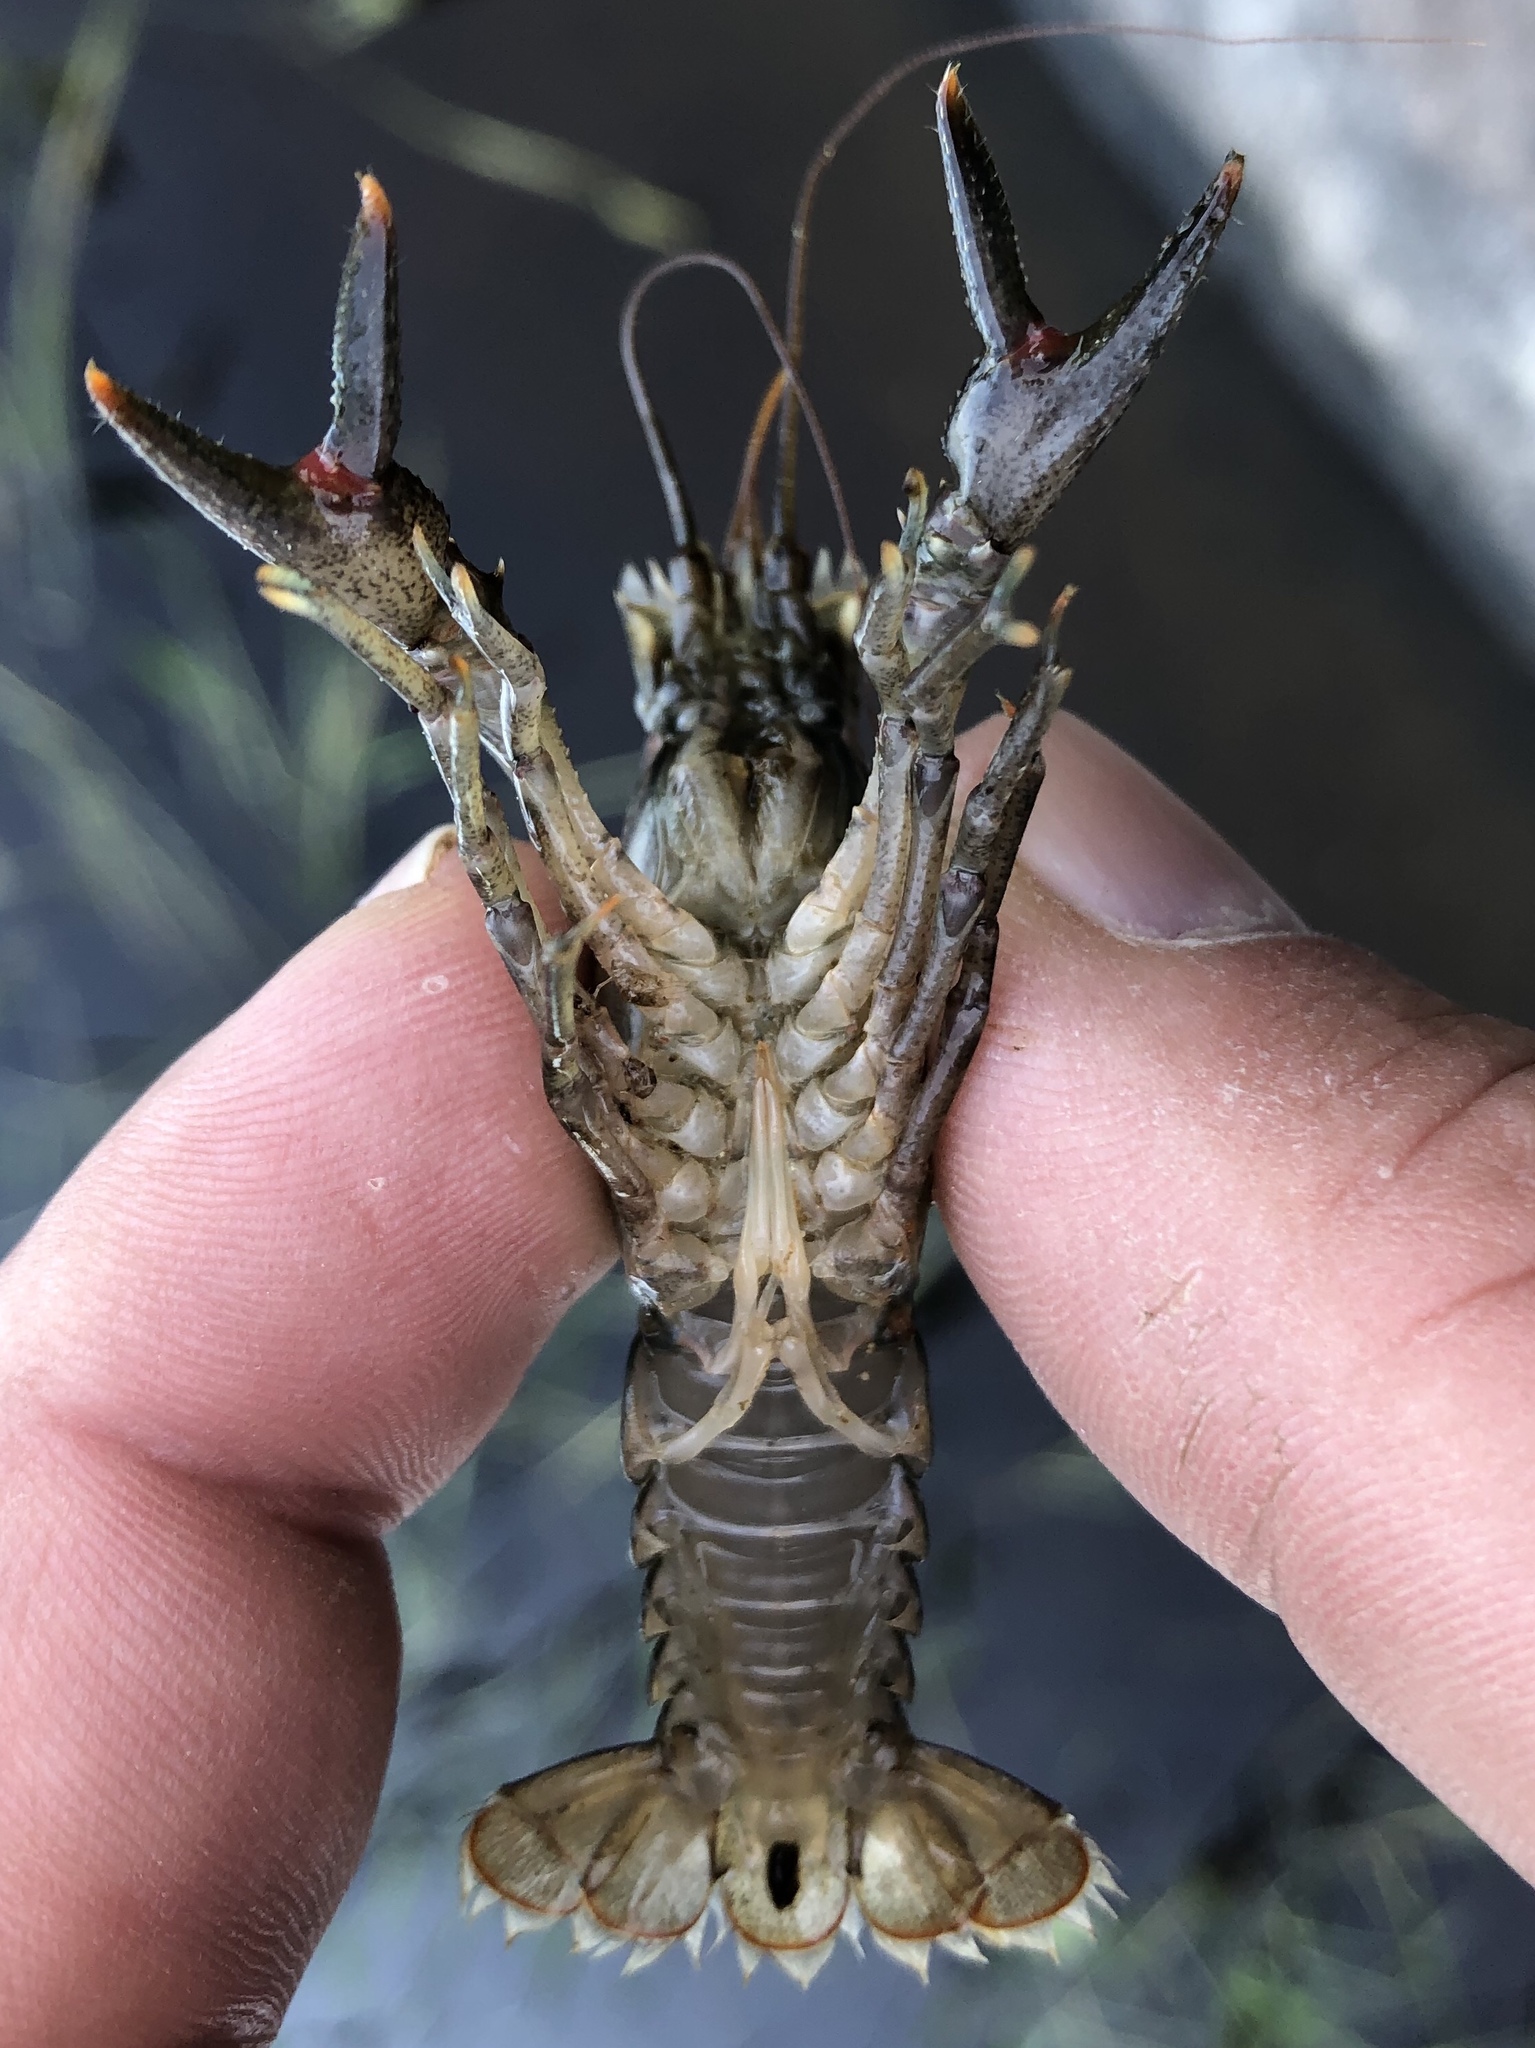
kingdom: Animalia
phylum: Arthropoda
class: Malacostraca
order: Decapoda
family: Cambaridae
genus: Faxonius
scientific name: Faxonius virilis
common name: Virile crayfish
